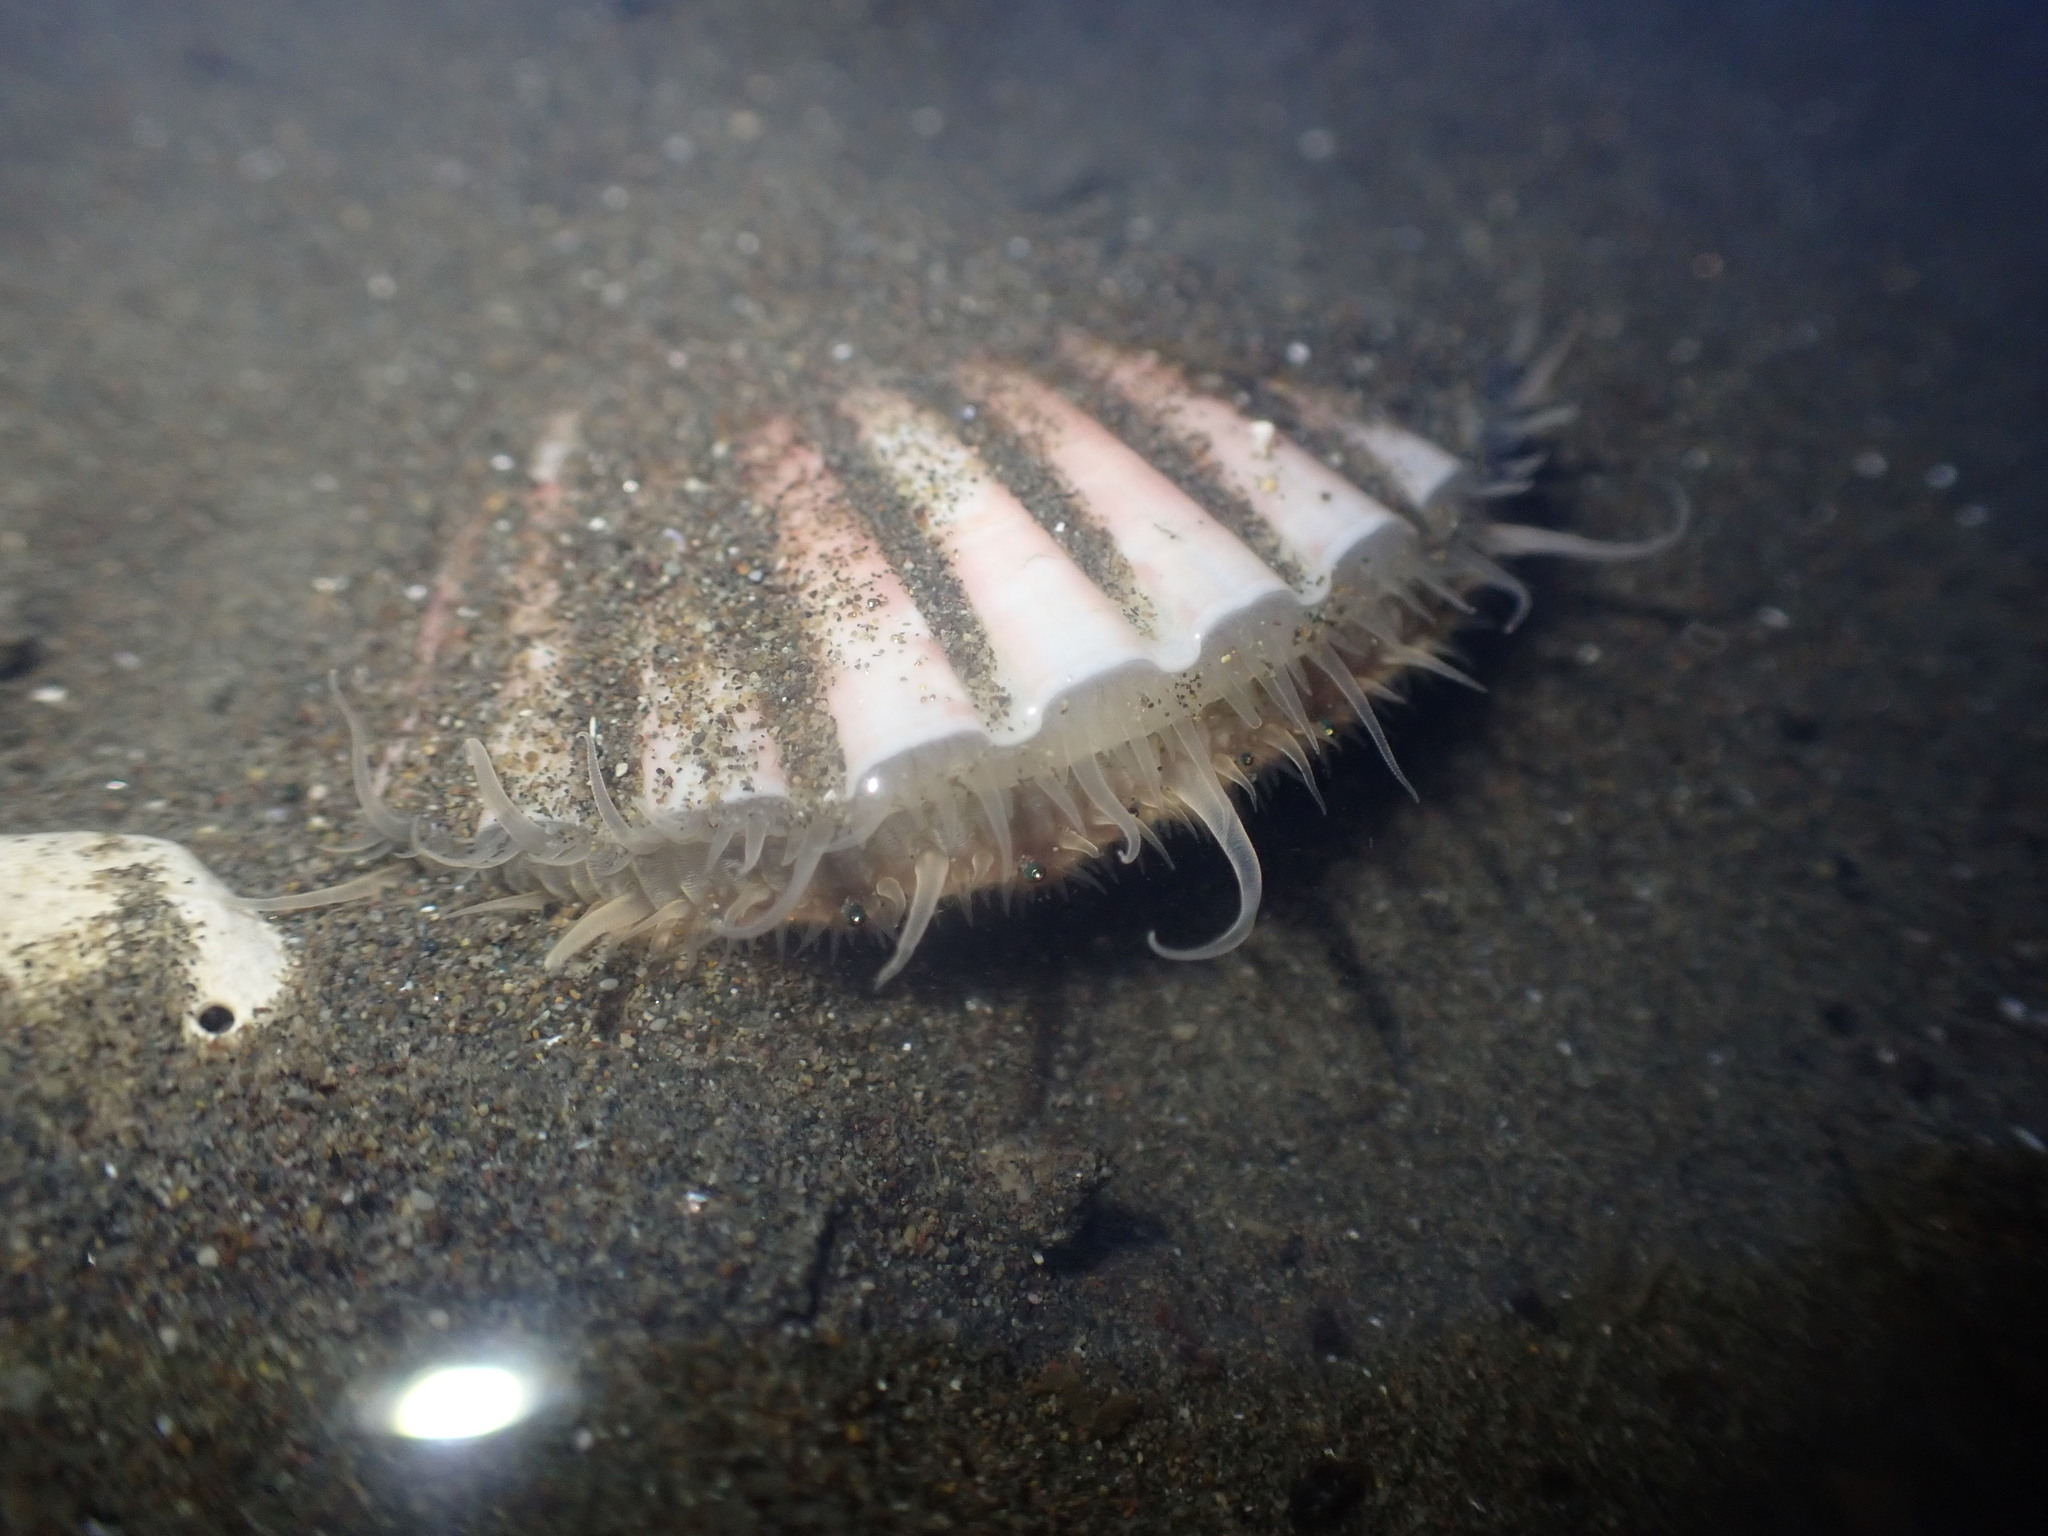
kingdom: Animalia
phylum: Mollusca
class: Bivalvia
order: Pectinida
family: Pectinidae
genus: Pecten
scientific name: Pecten novaezelandiae
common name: New zealand scallop
